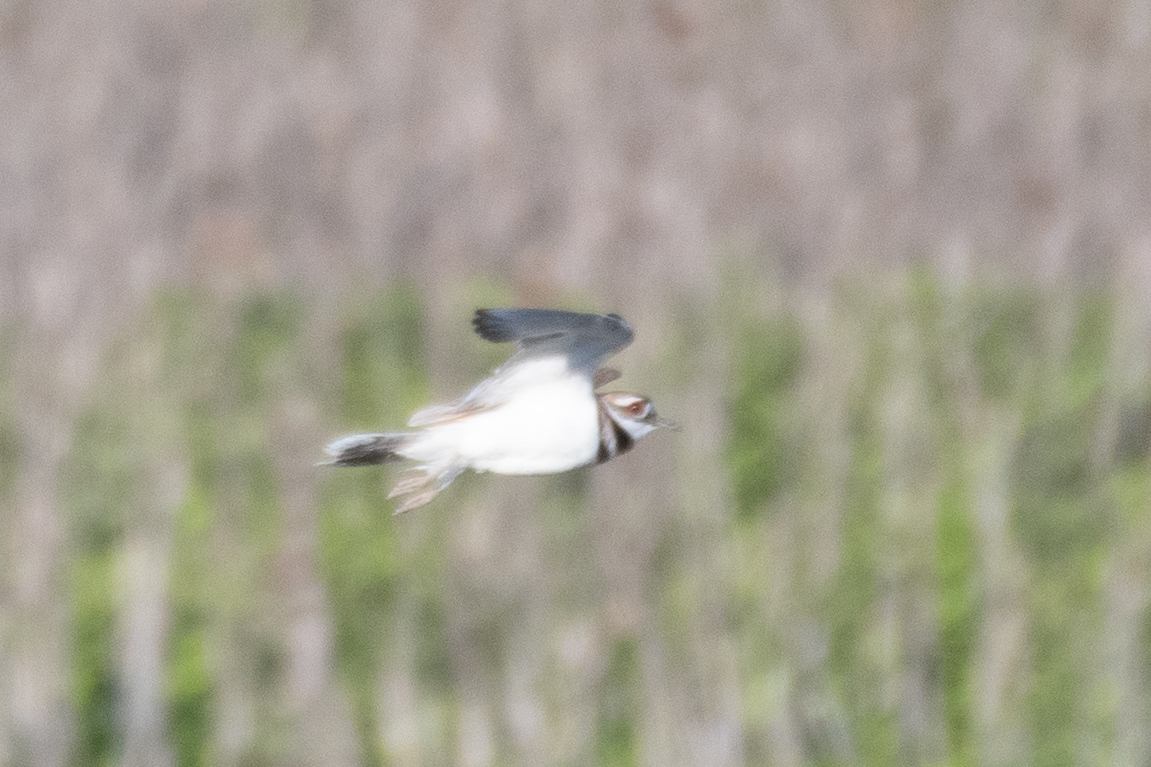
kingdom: Animalia
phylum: Chordata
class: Aves
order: Charadriiformes
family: Charadriidae
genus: Charadrius
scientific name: Charadrius vociferus
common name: Killdeer
